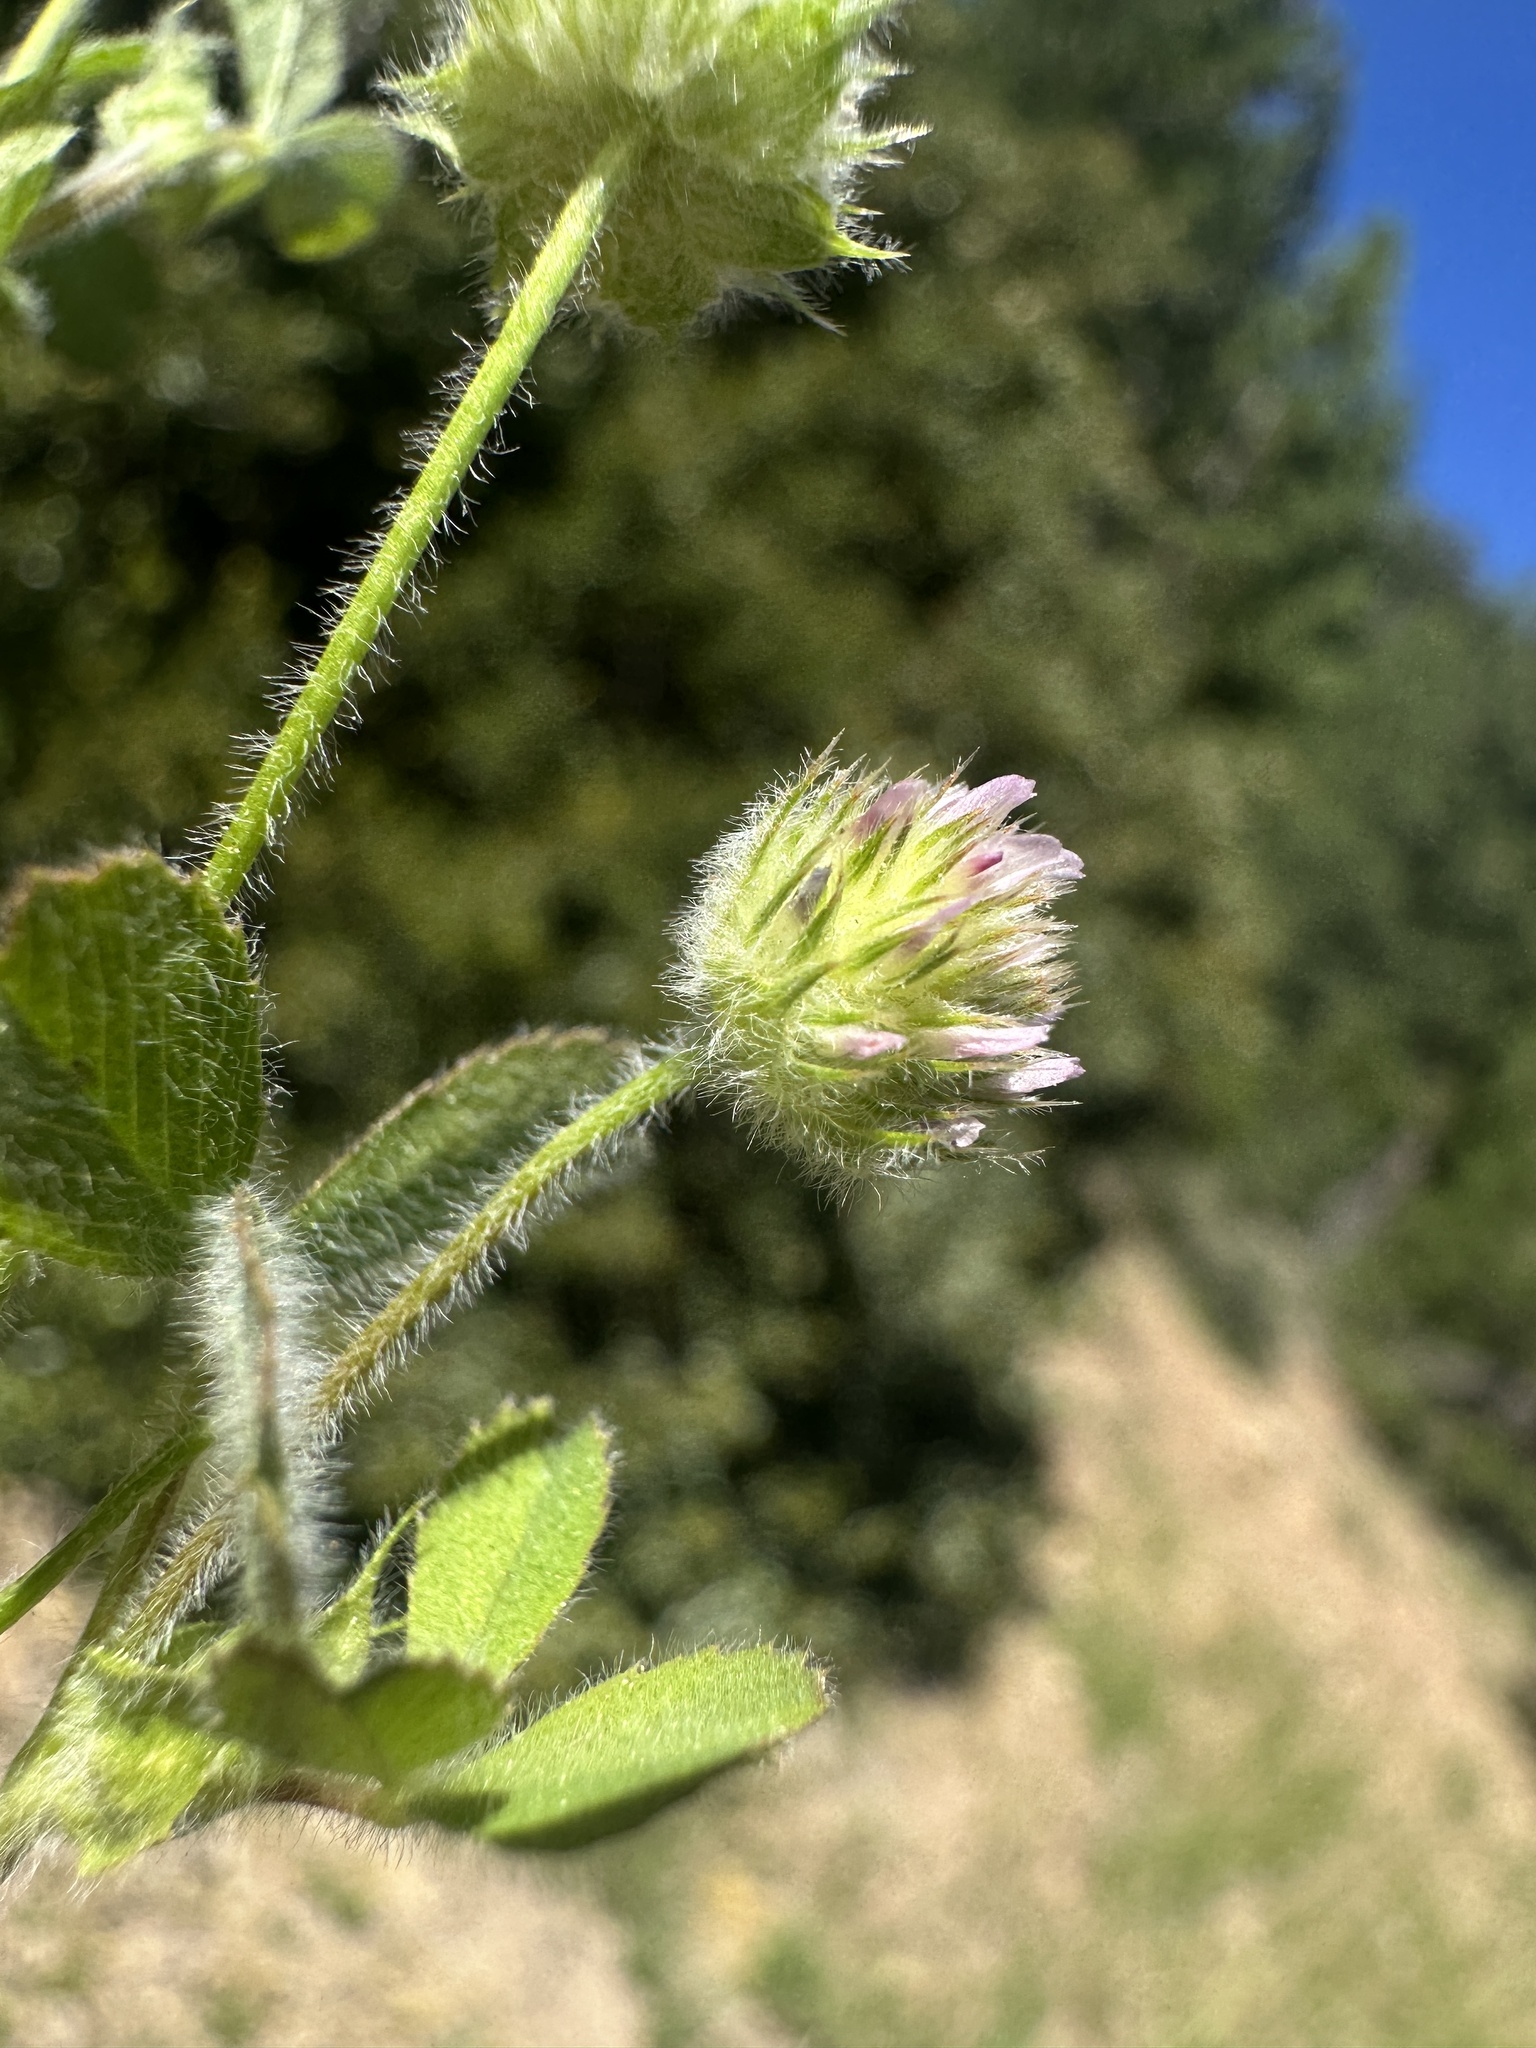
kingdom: Plantae
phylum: Tracheophyta
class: Magnoliopsida
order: Fabales
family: Fabaceae
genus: Trifolium
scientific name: Trifolium microcephalum
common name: Maiden clover
